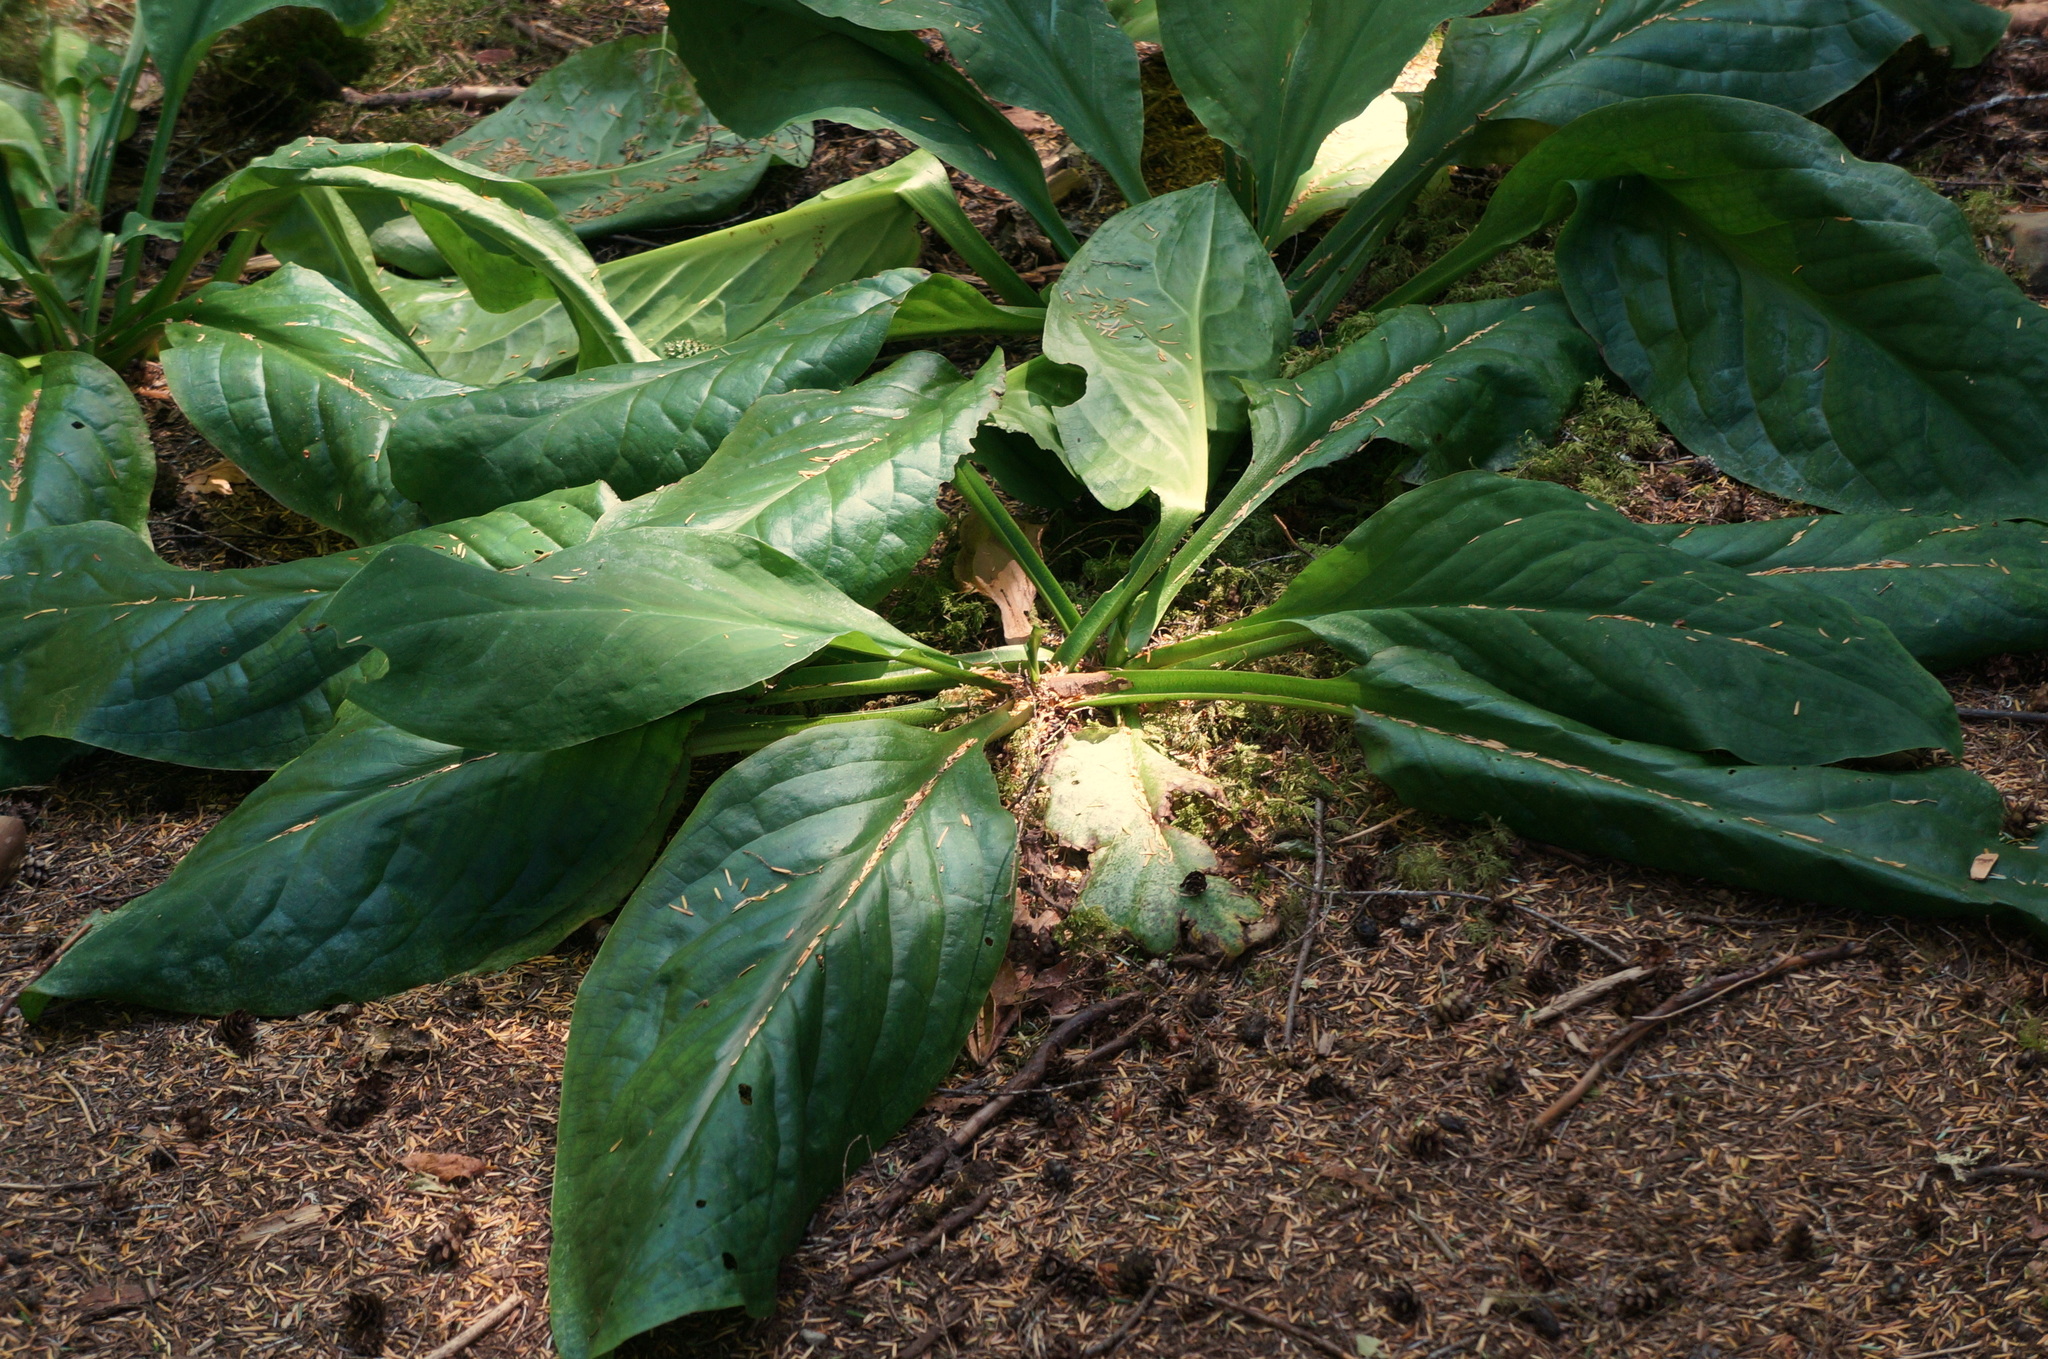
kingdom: Plantae
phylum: Tracheophyta
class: Liliopsida
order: Alismatales
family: Araceae
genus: Lysichiton
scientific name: Lysichiton americanus
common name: American skunk cabbage
